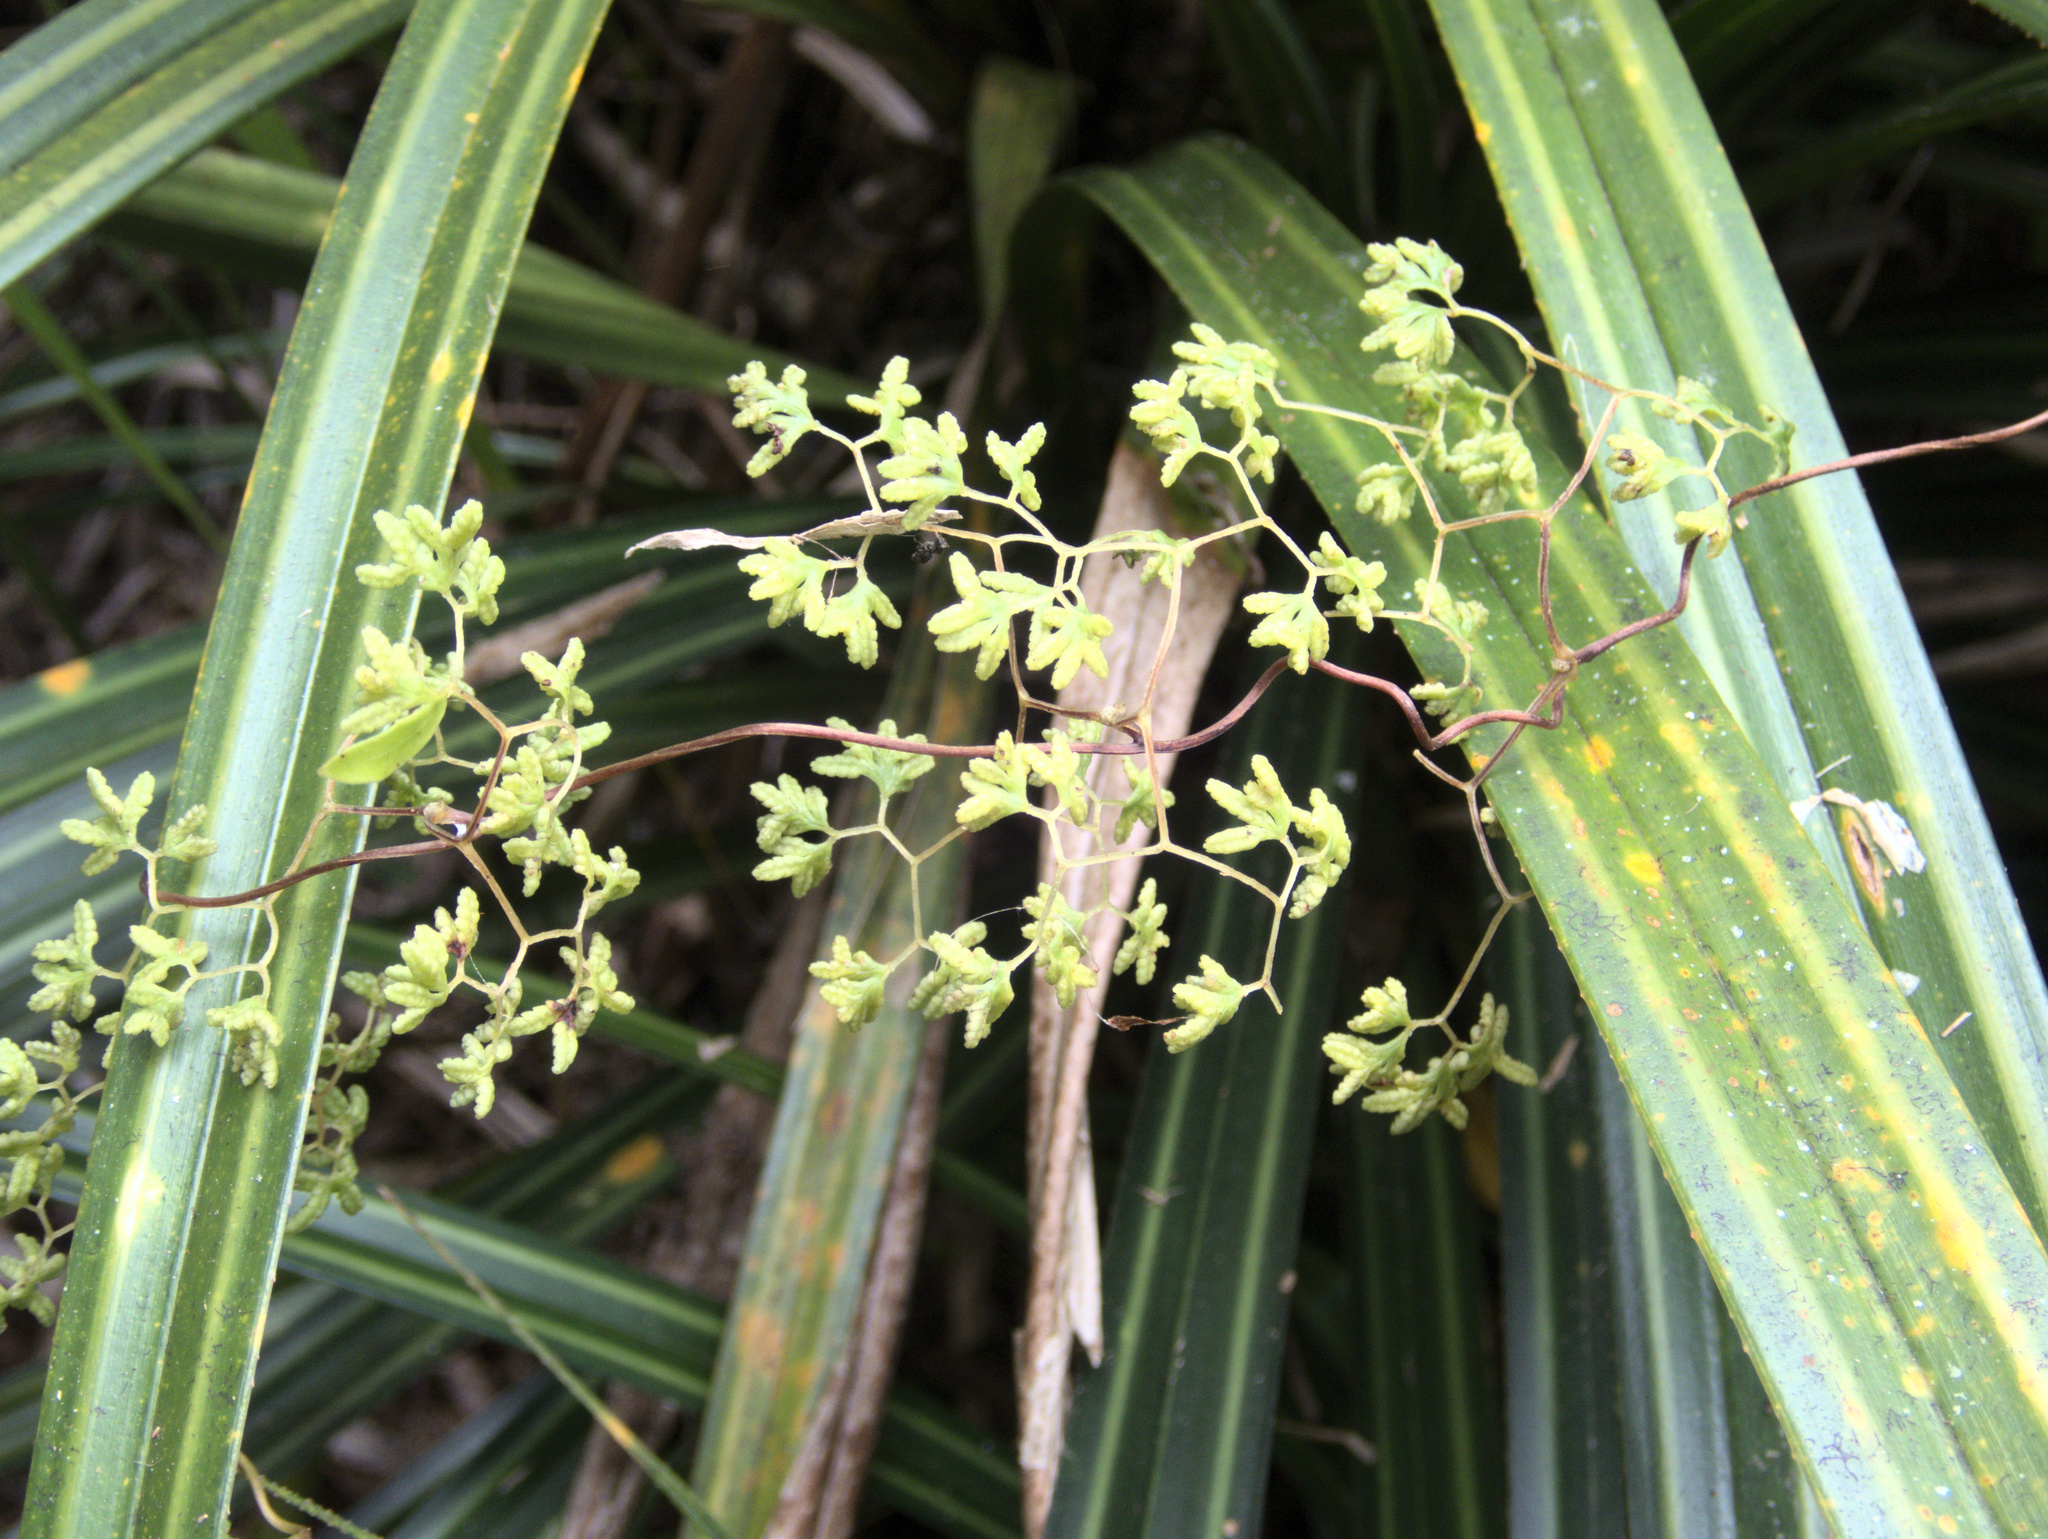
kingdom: Plantae
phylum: Tracheophyta
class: Polypodiopsida
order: Schizaeales
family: Lygodiaceae
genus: Lygodium
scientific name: Lygodium articulatum
